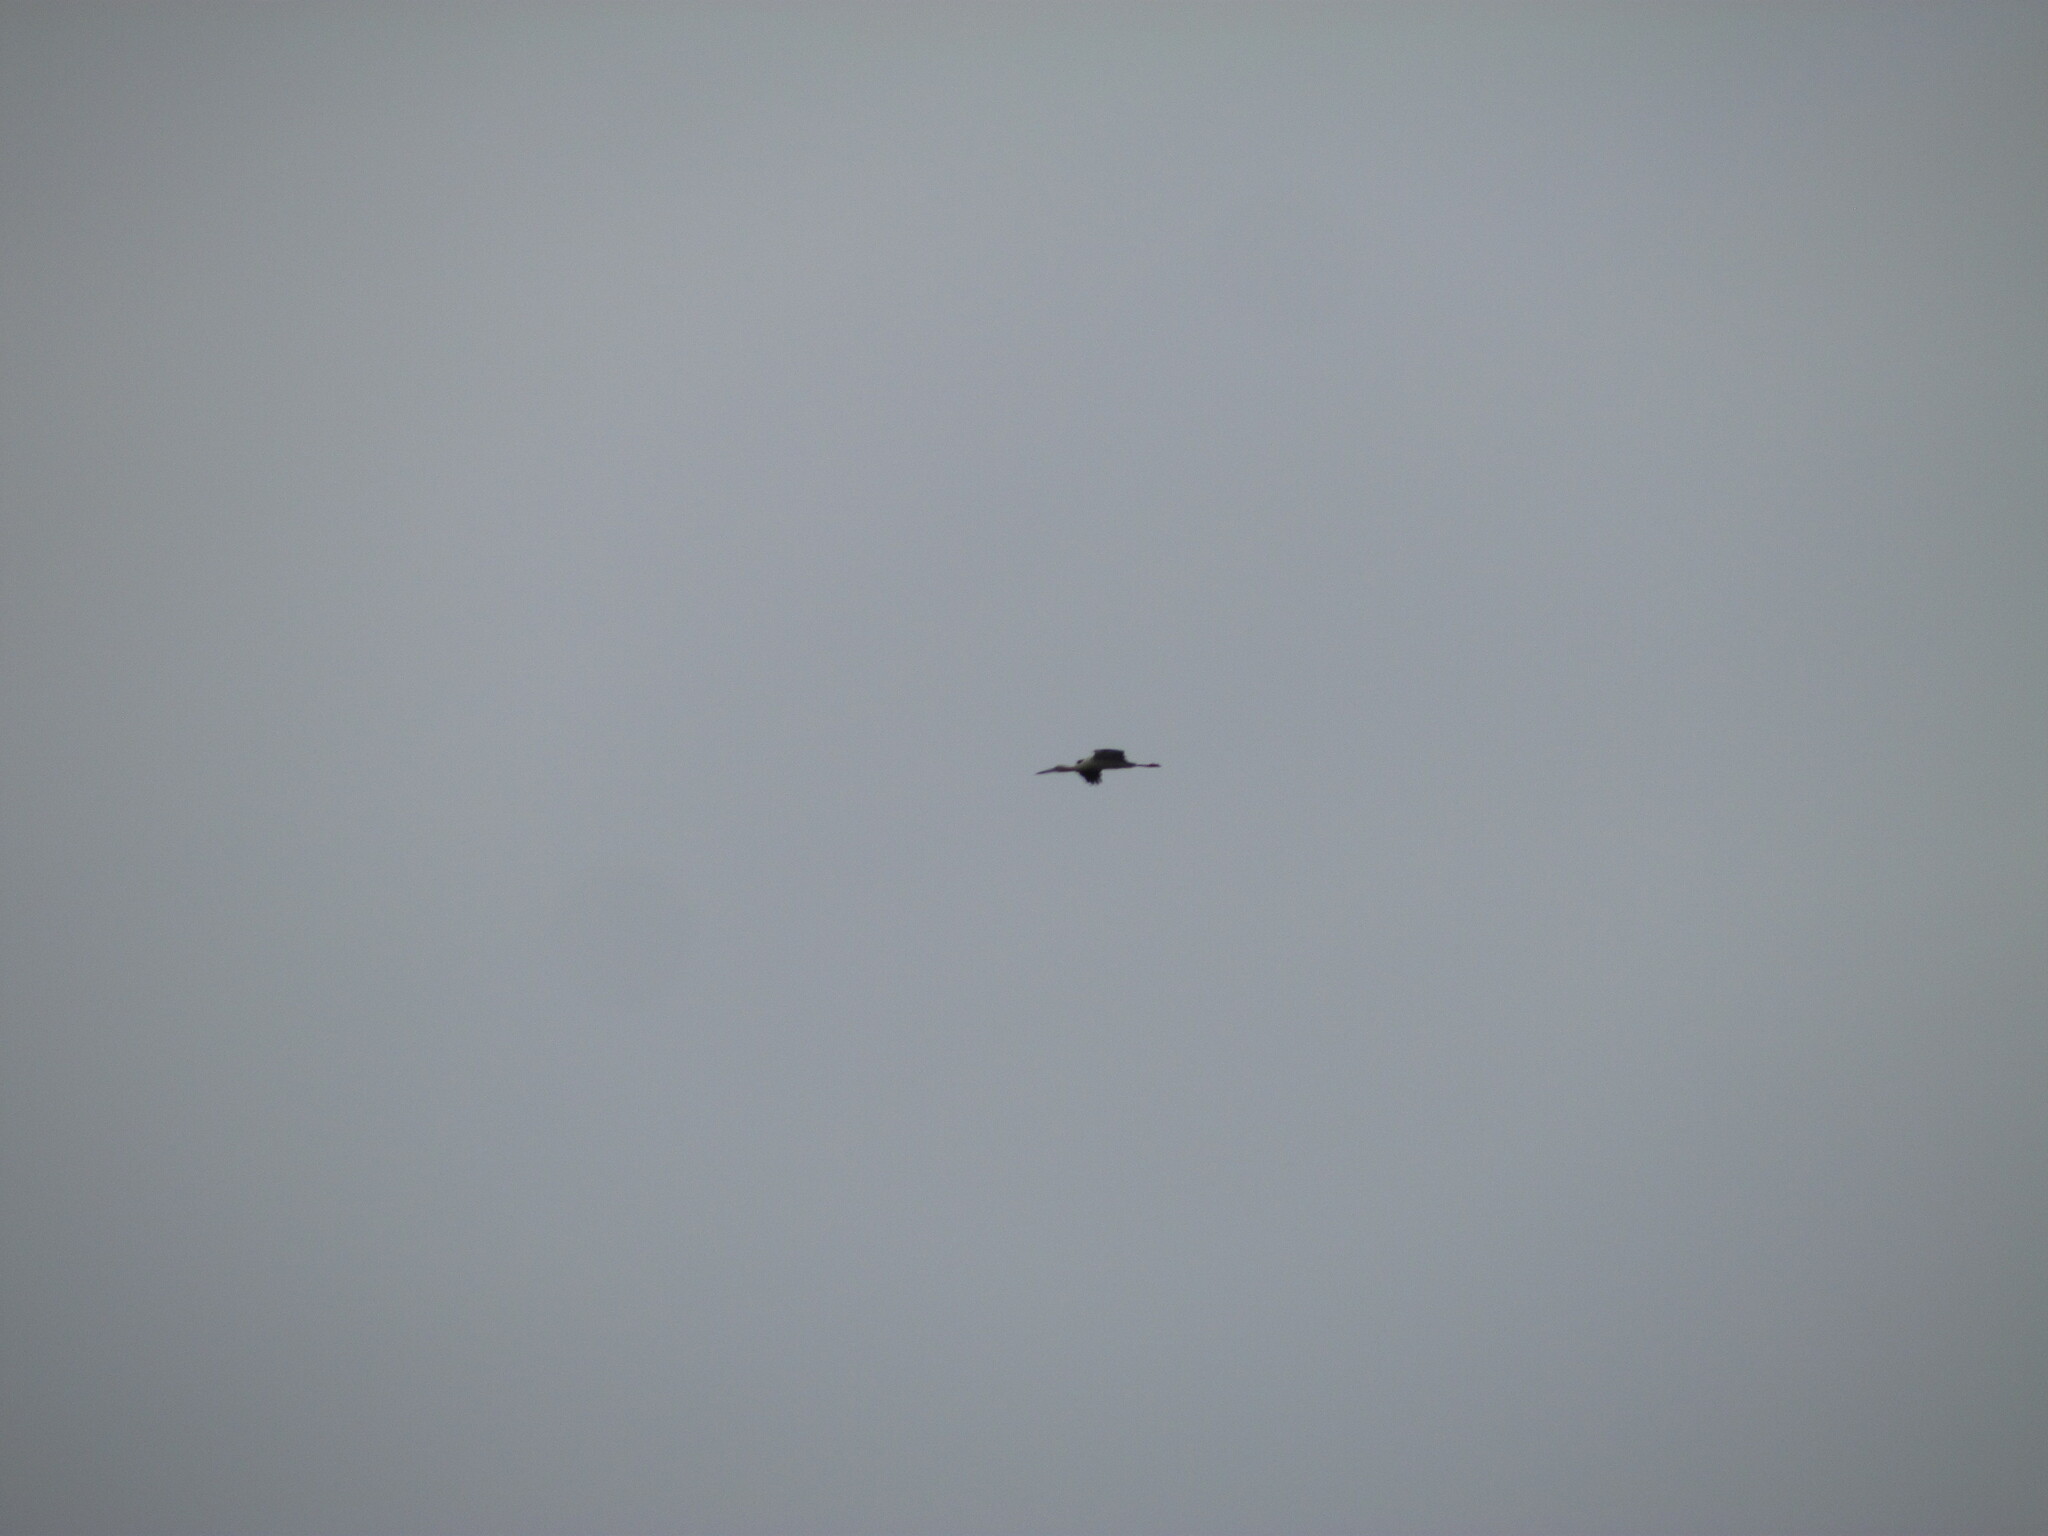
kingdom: Animalia
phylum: Chordata
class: Aves
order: Ciconiiformes
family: Ciconiidae
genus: Ciconia
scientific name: Ciconia maguari
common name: Maguari stork
